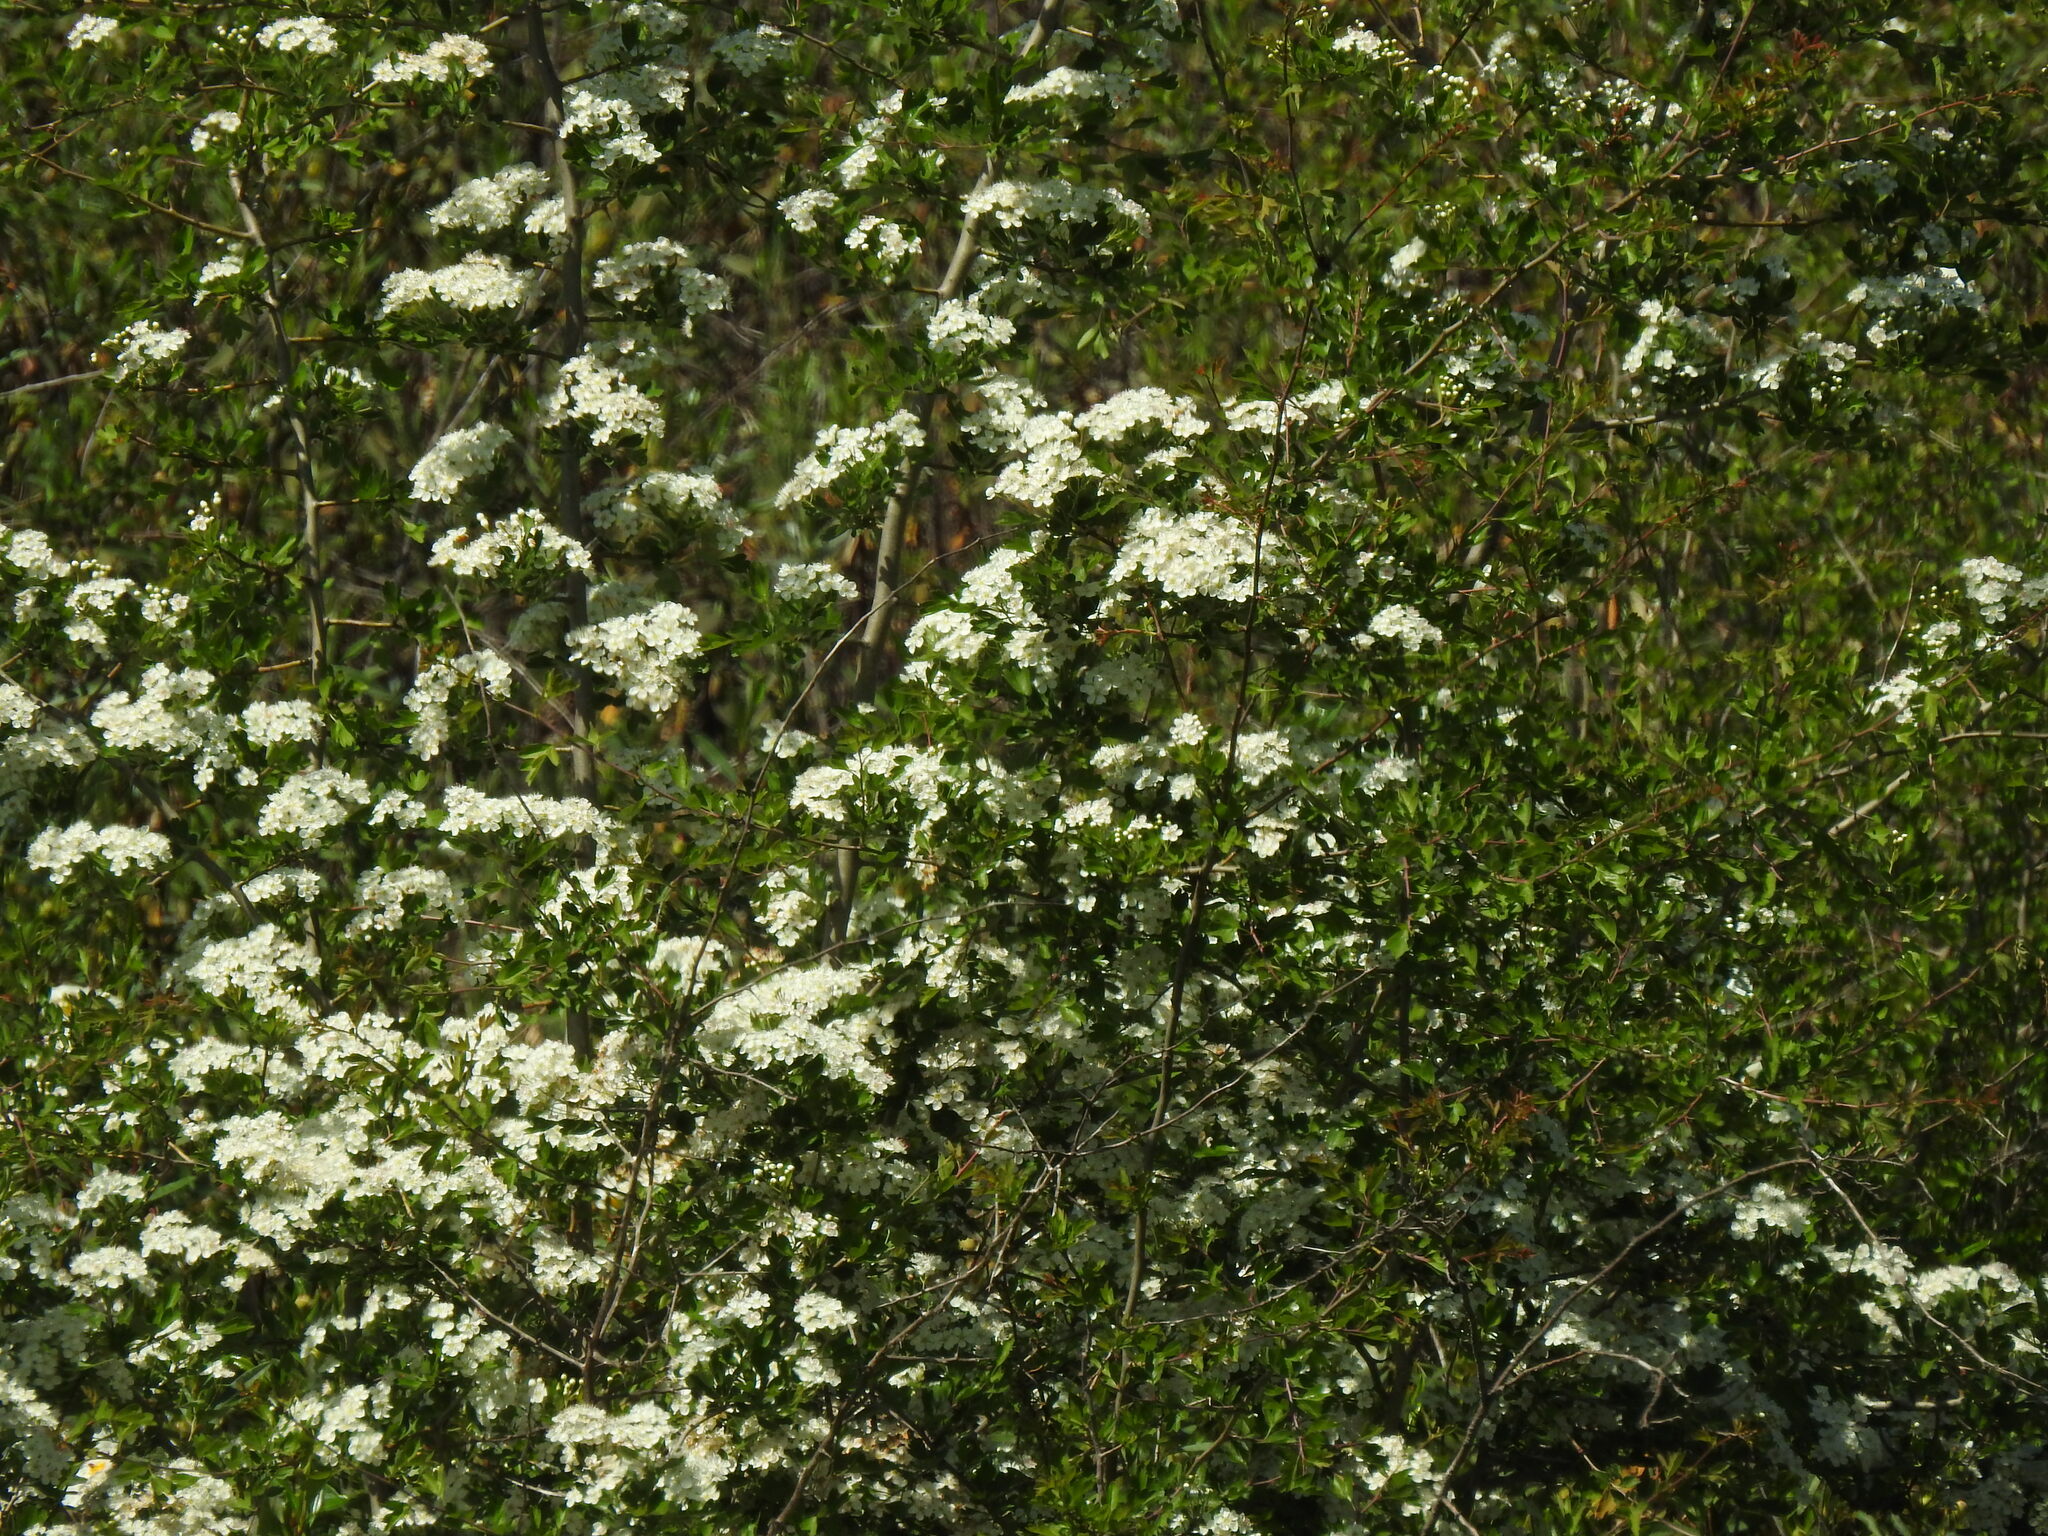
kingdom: Plantae
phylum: Tracheophyta
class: Magnoliopsida
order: Rosales
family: Rosaceae
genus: Crataegus
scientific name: Crataegus monogyna
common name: Hawthorn
